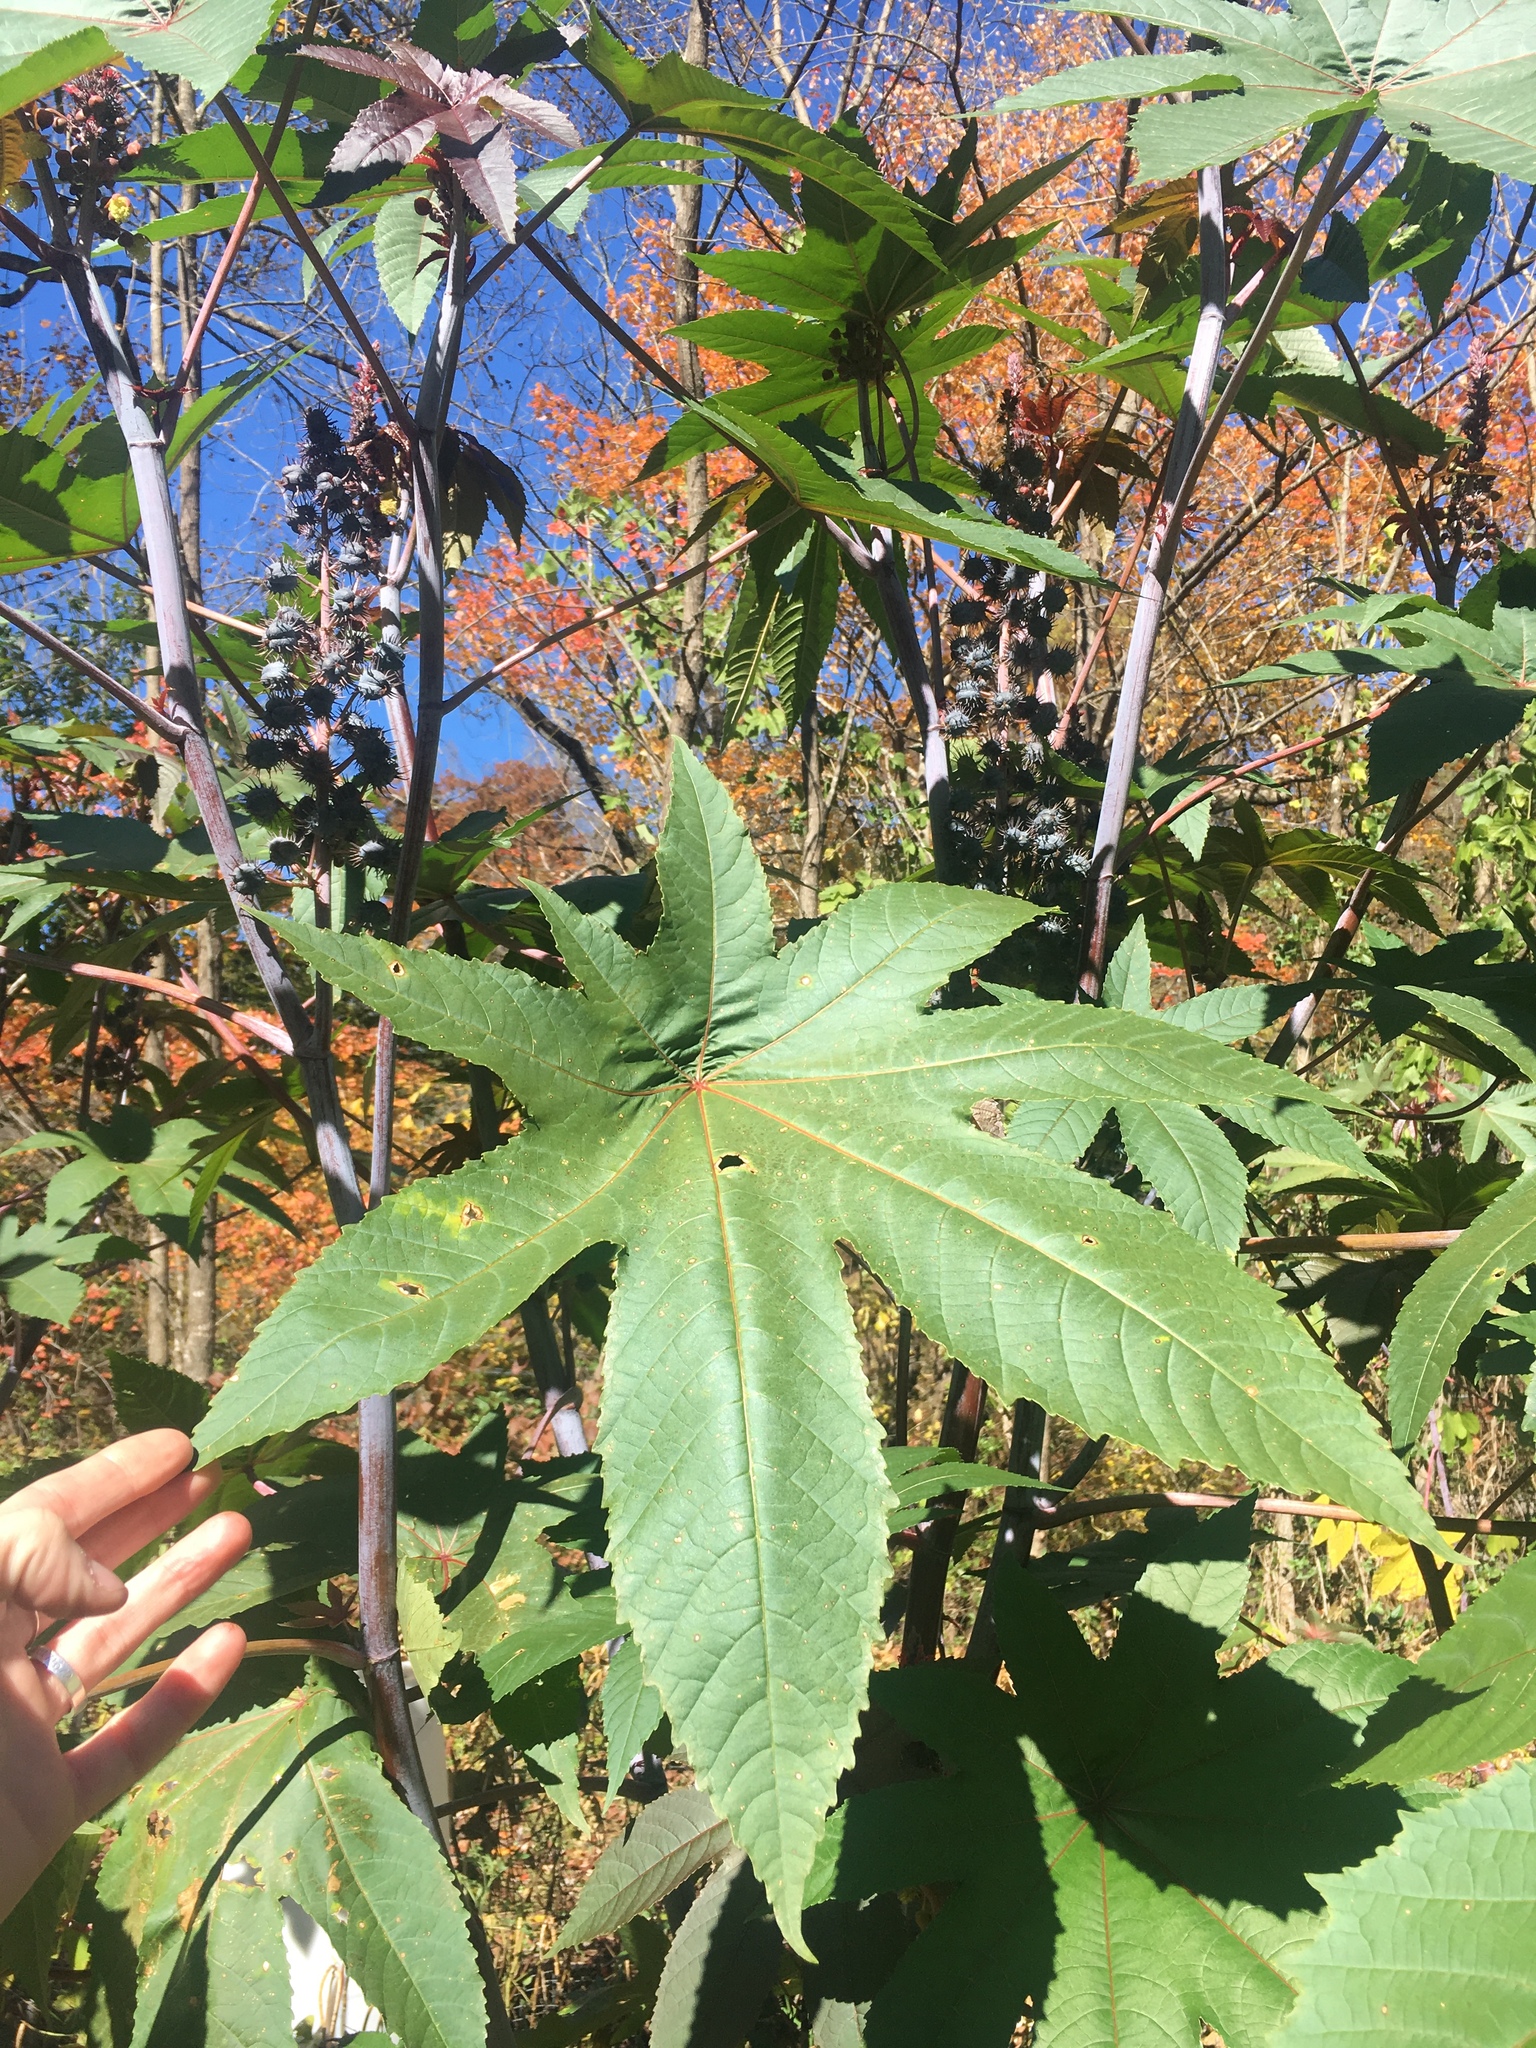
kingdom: Plantae
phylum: Tracheophyta
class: Magnoliopsida
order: Malpighiales
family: Euphorbiaceae
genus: Ricinus
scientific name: Ricinus communis
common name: Castor-oil-plant
